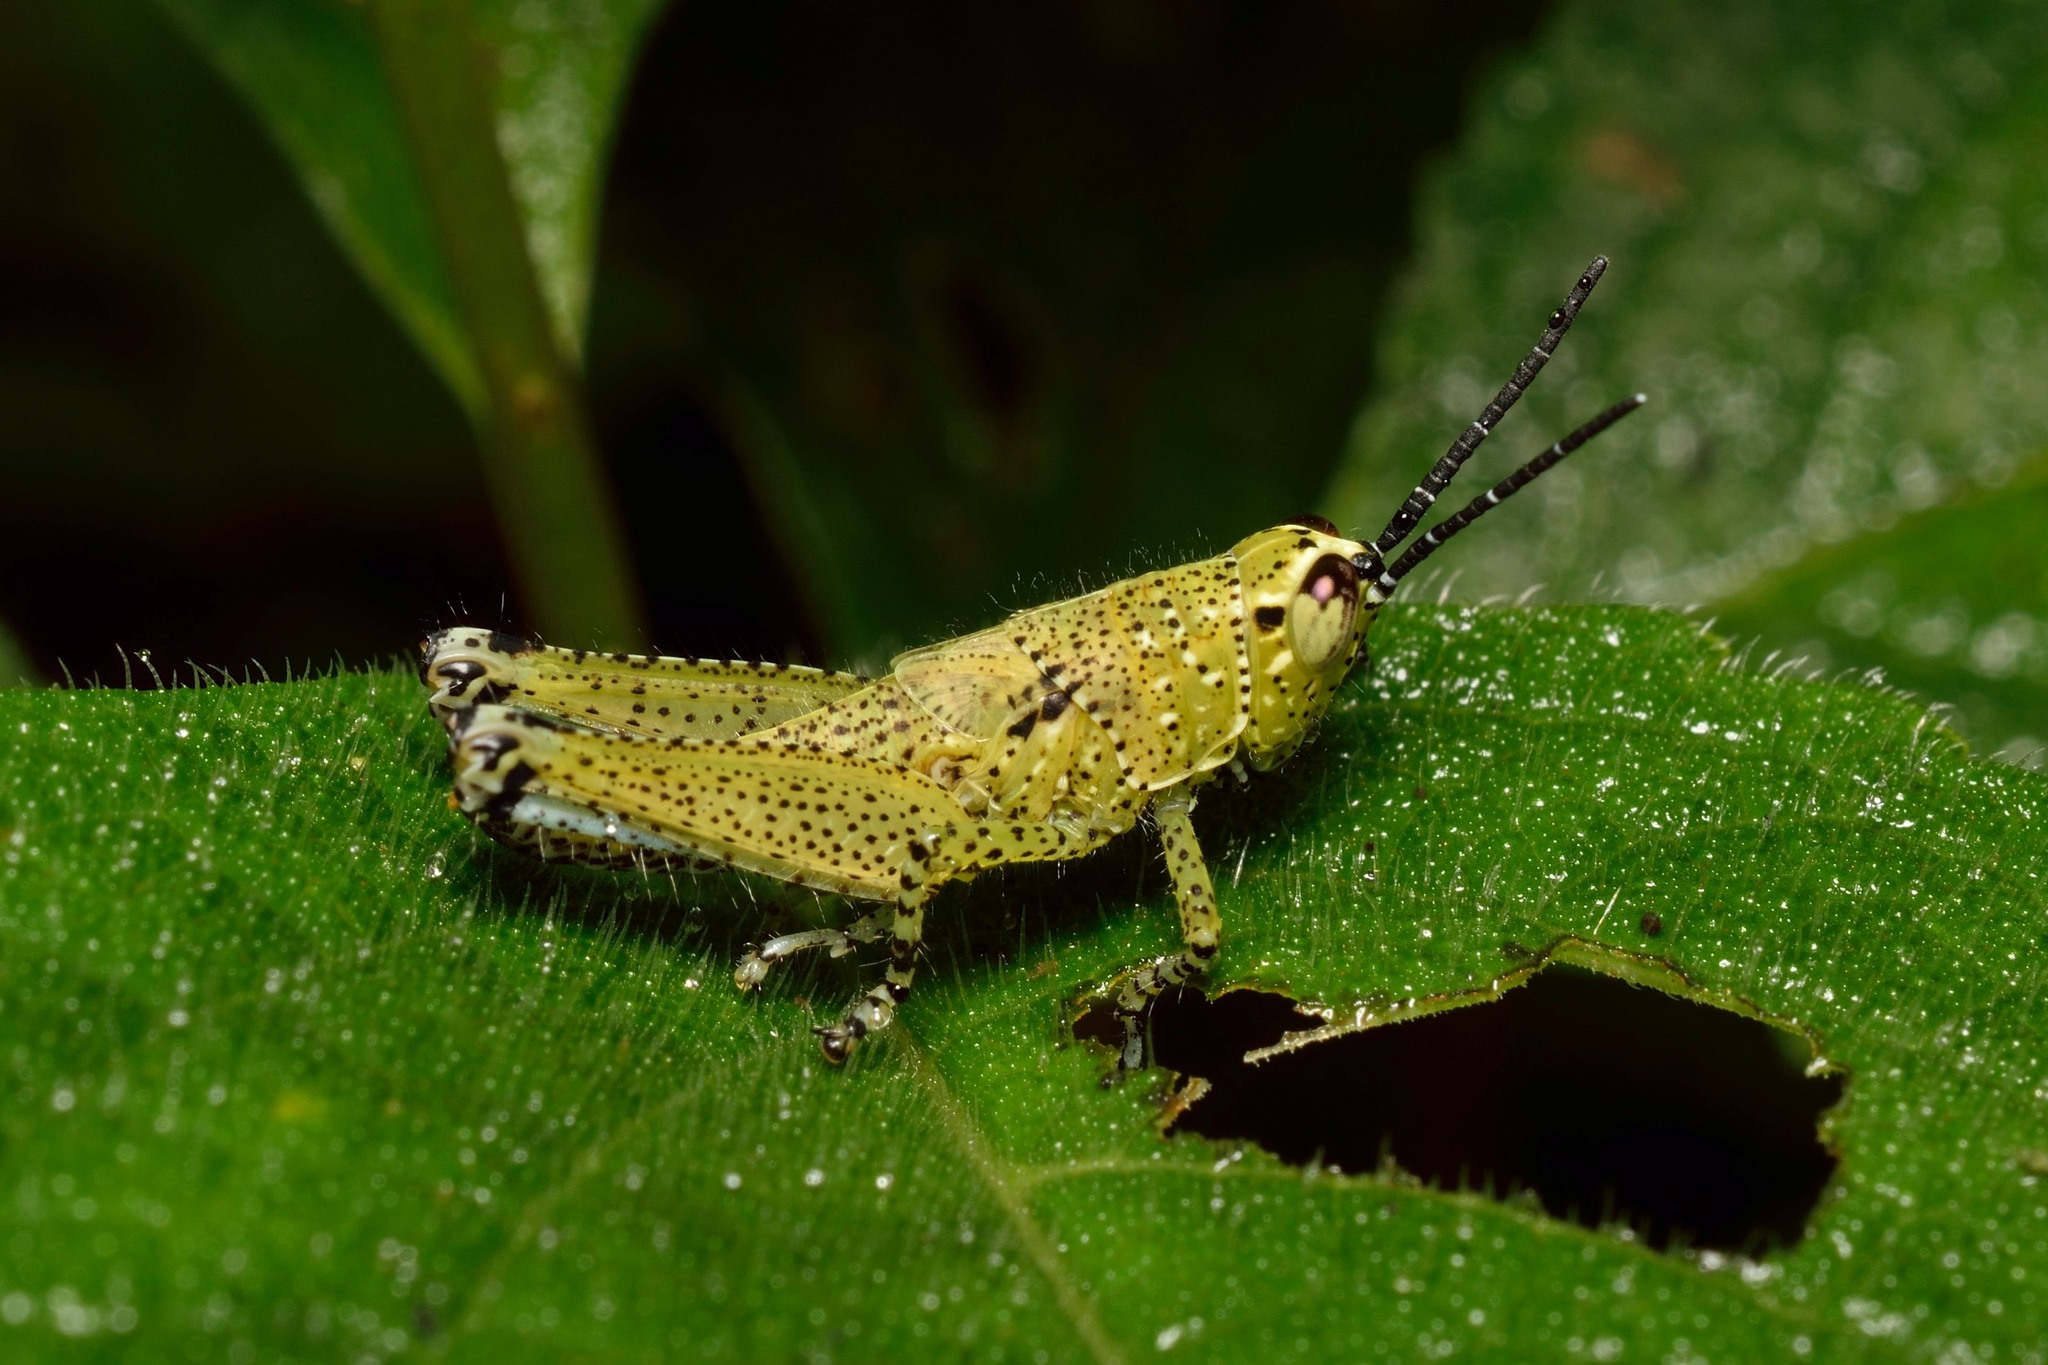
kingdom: Animalia
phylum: Arthropoda
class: Insecta
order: Orthoptera
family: Acrididae
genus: Xenocatantops
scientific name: Xenocatantops humile
